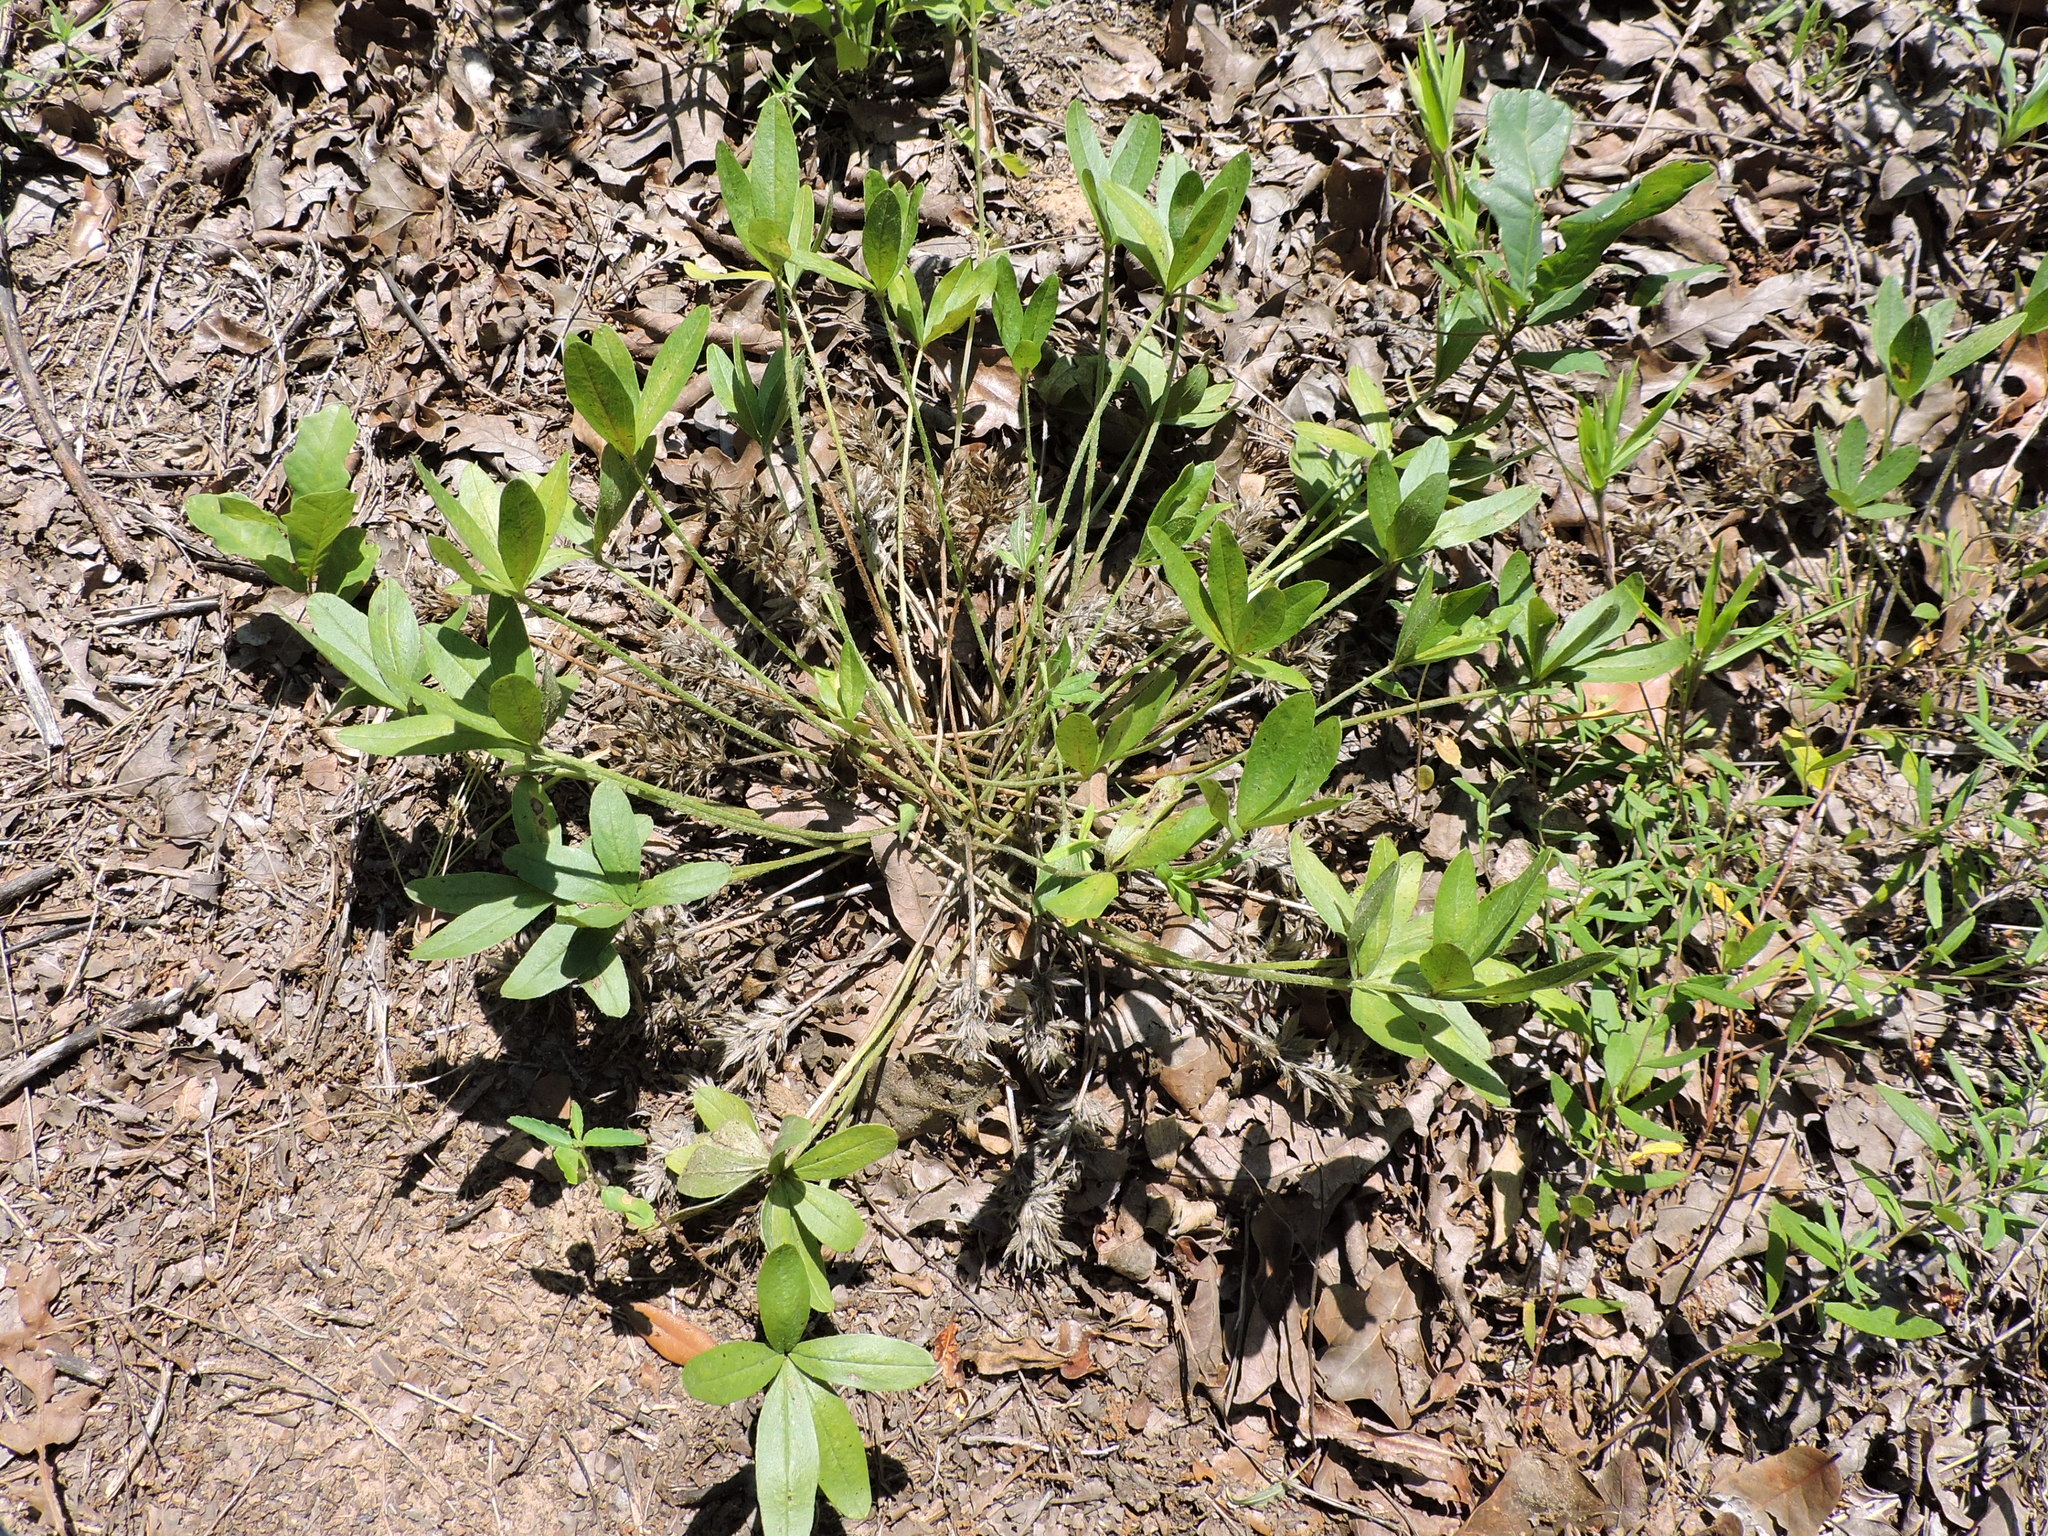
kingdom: Plantae
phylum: Tracheophyta
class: Magnoliopsida
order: Fabales
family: Fabaceae
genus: Pediomelum
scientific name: Pediomelum hypogaeum
